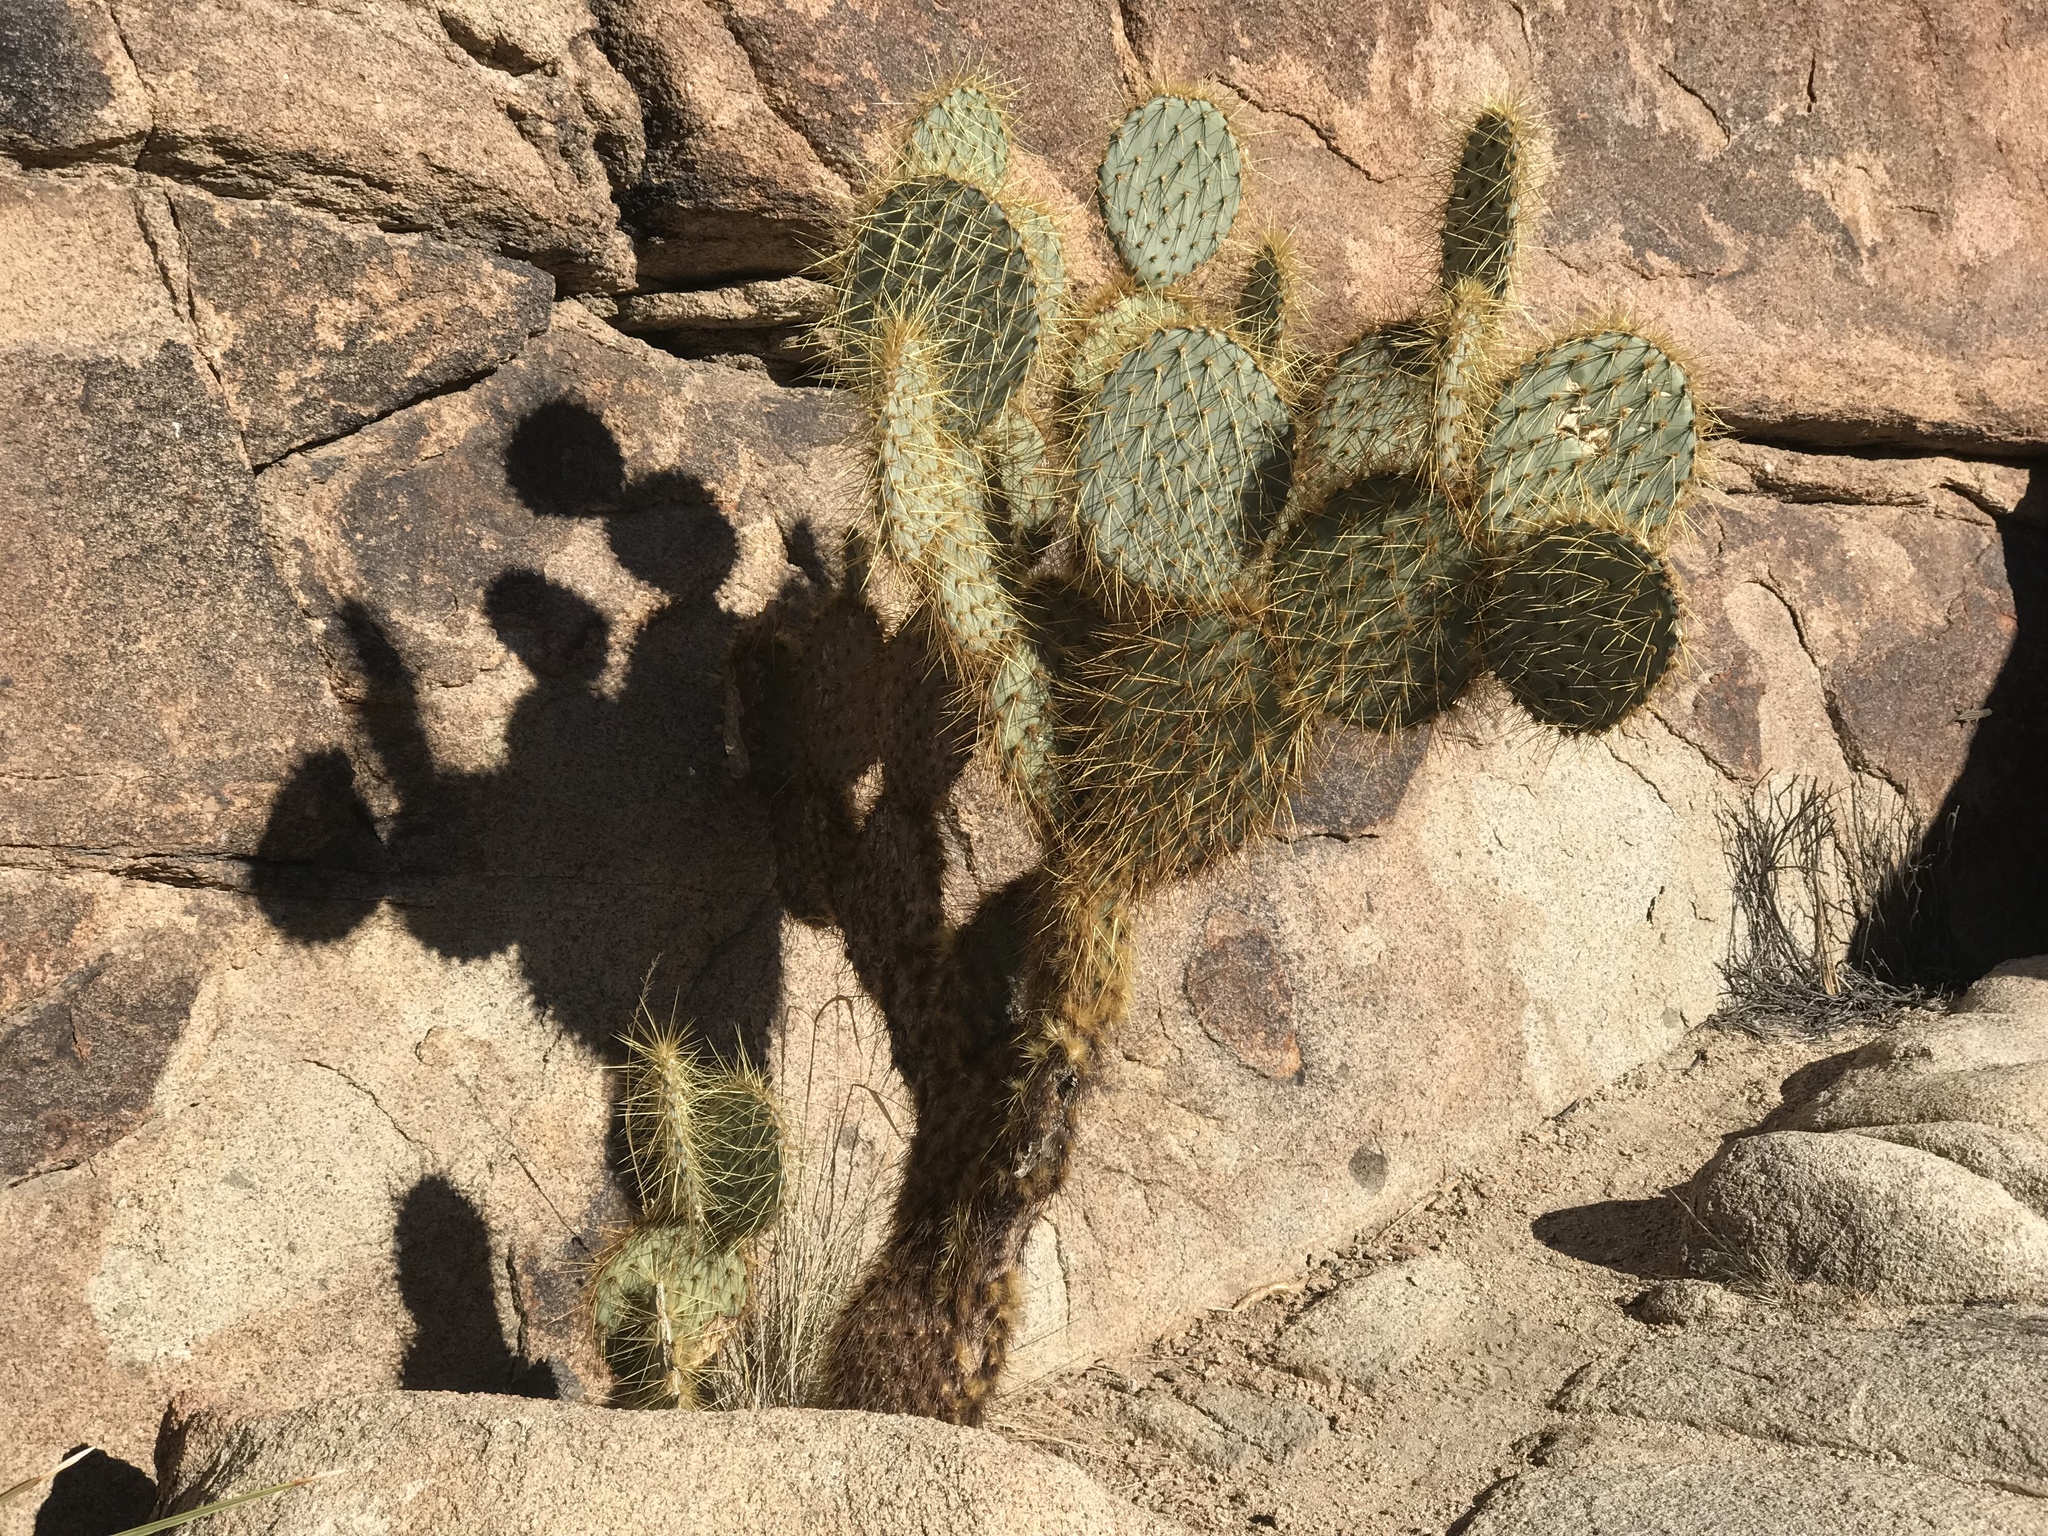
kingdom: Plantae
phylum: Tracheophyta
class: Magnoliopsida
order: Caryophyllales
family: Cactaceae
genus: Opuntia
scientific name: Opuntia chlorotica
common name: Dollar-joint prickly-pear
